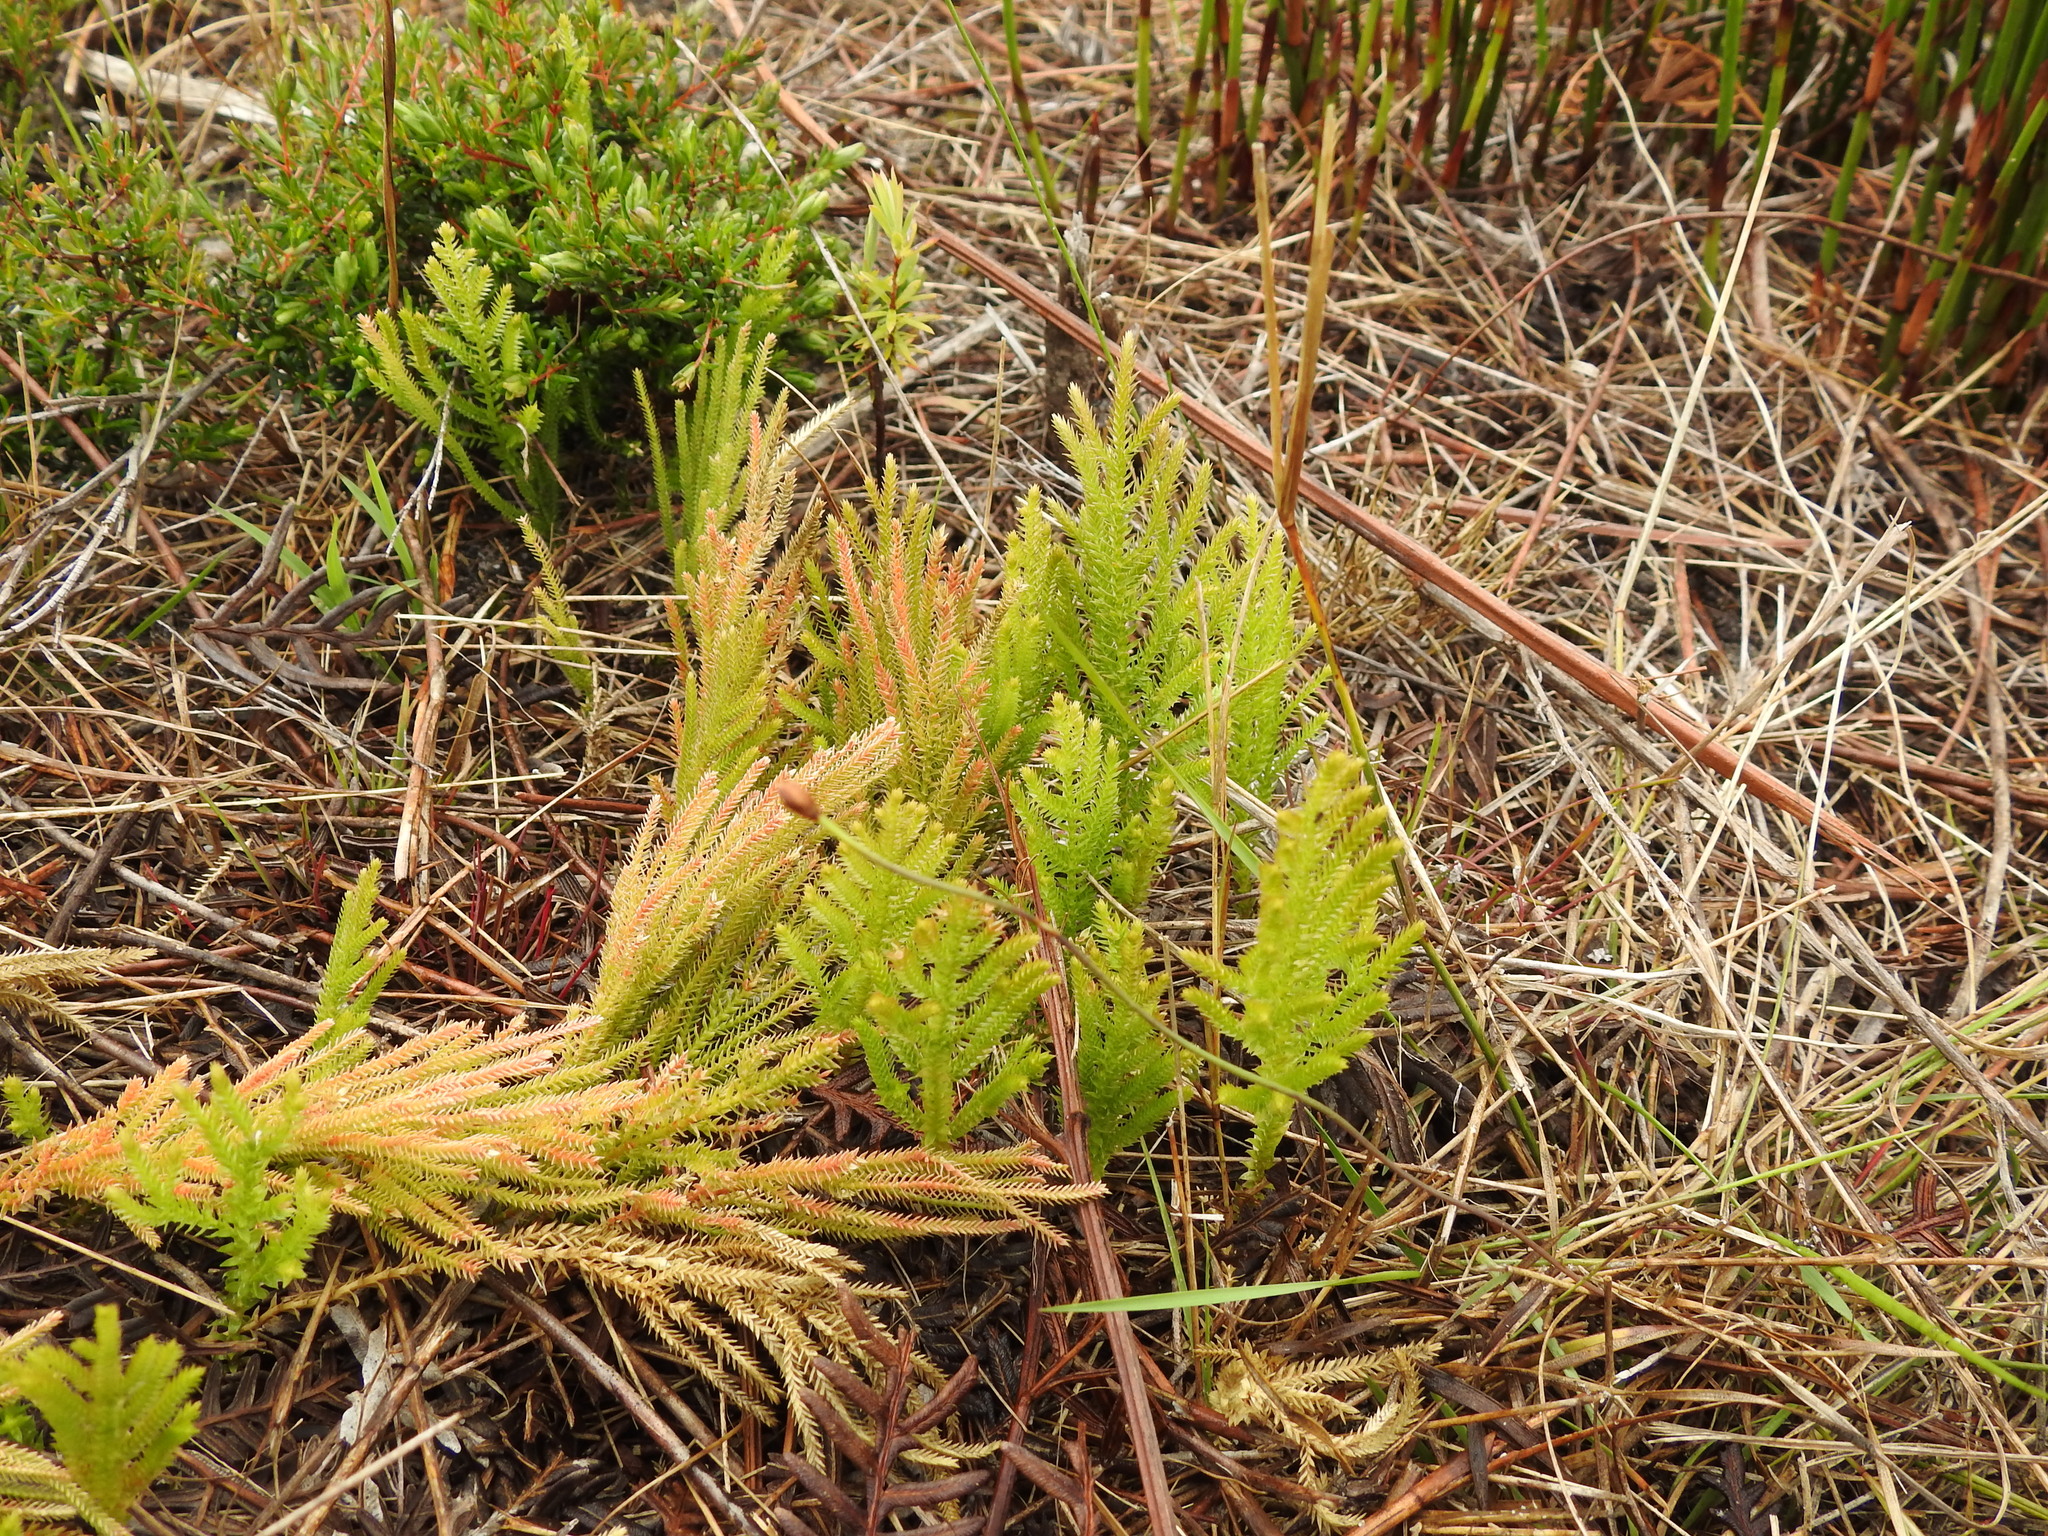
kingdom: Plantae
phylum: Tracheophyta
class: Lycopodiopsida
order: Selaginellales
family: Selaginellaceae
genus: Selaginella
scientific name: Selaginella uliginosa
